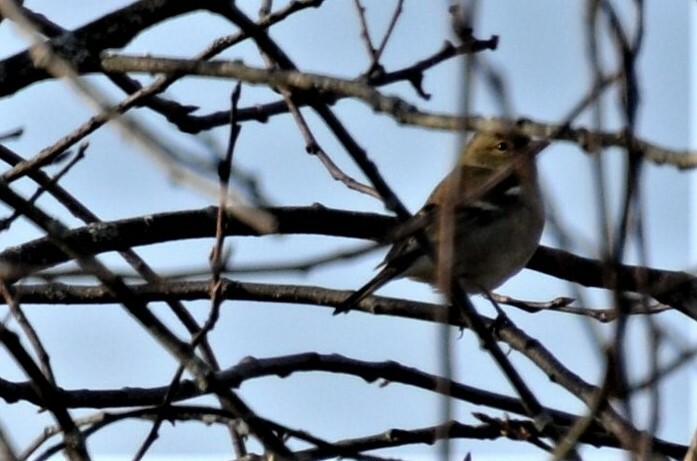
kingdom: Animalia
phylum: Chordata
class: Aves
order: Passeriformes
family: Fringillidae
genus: Fringilla
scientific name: Fringilla coelebs
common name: Common chaffinch
